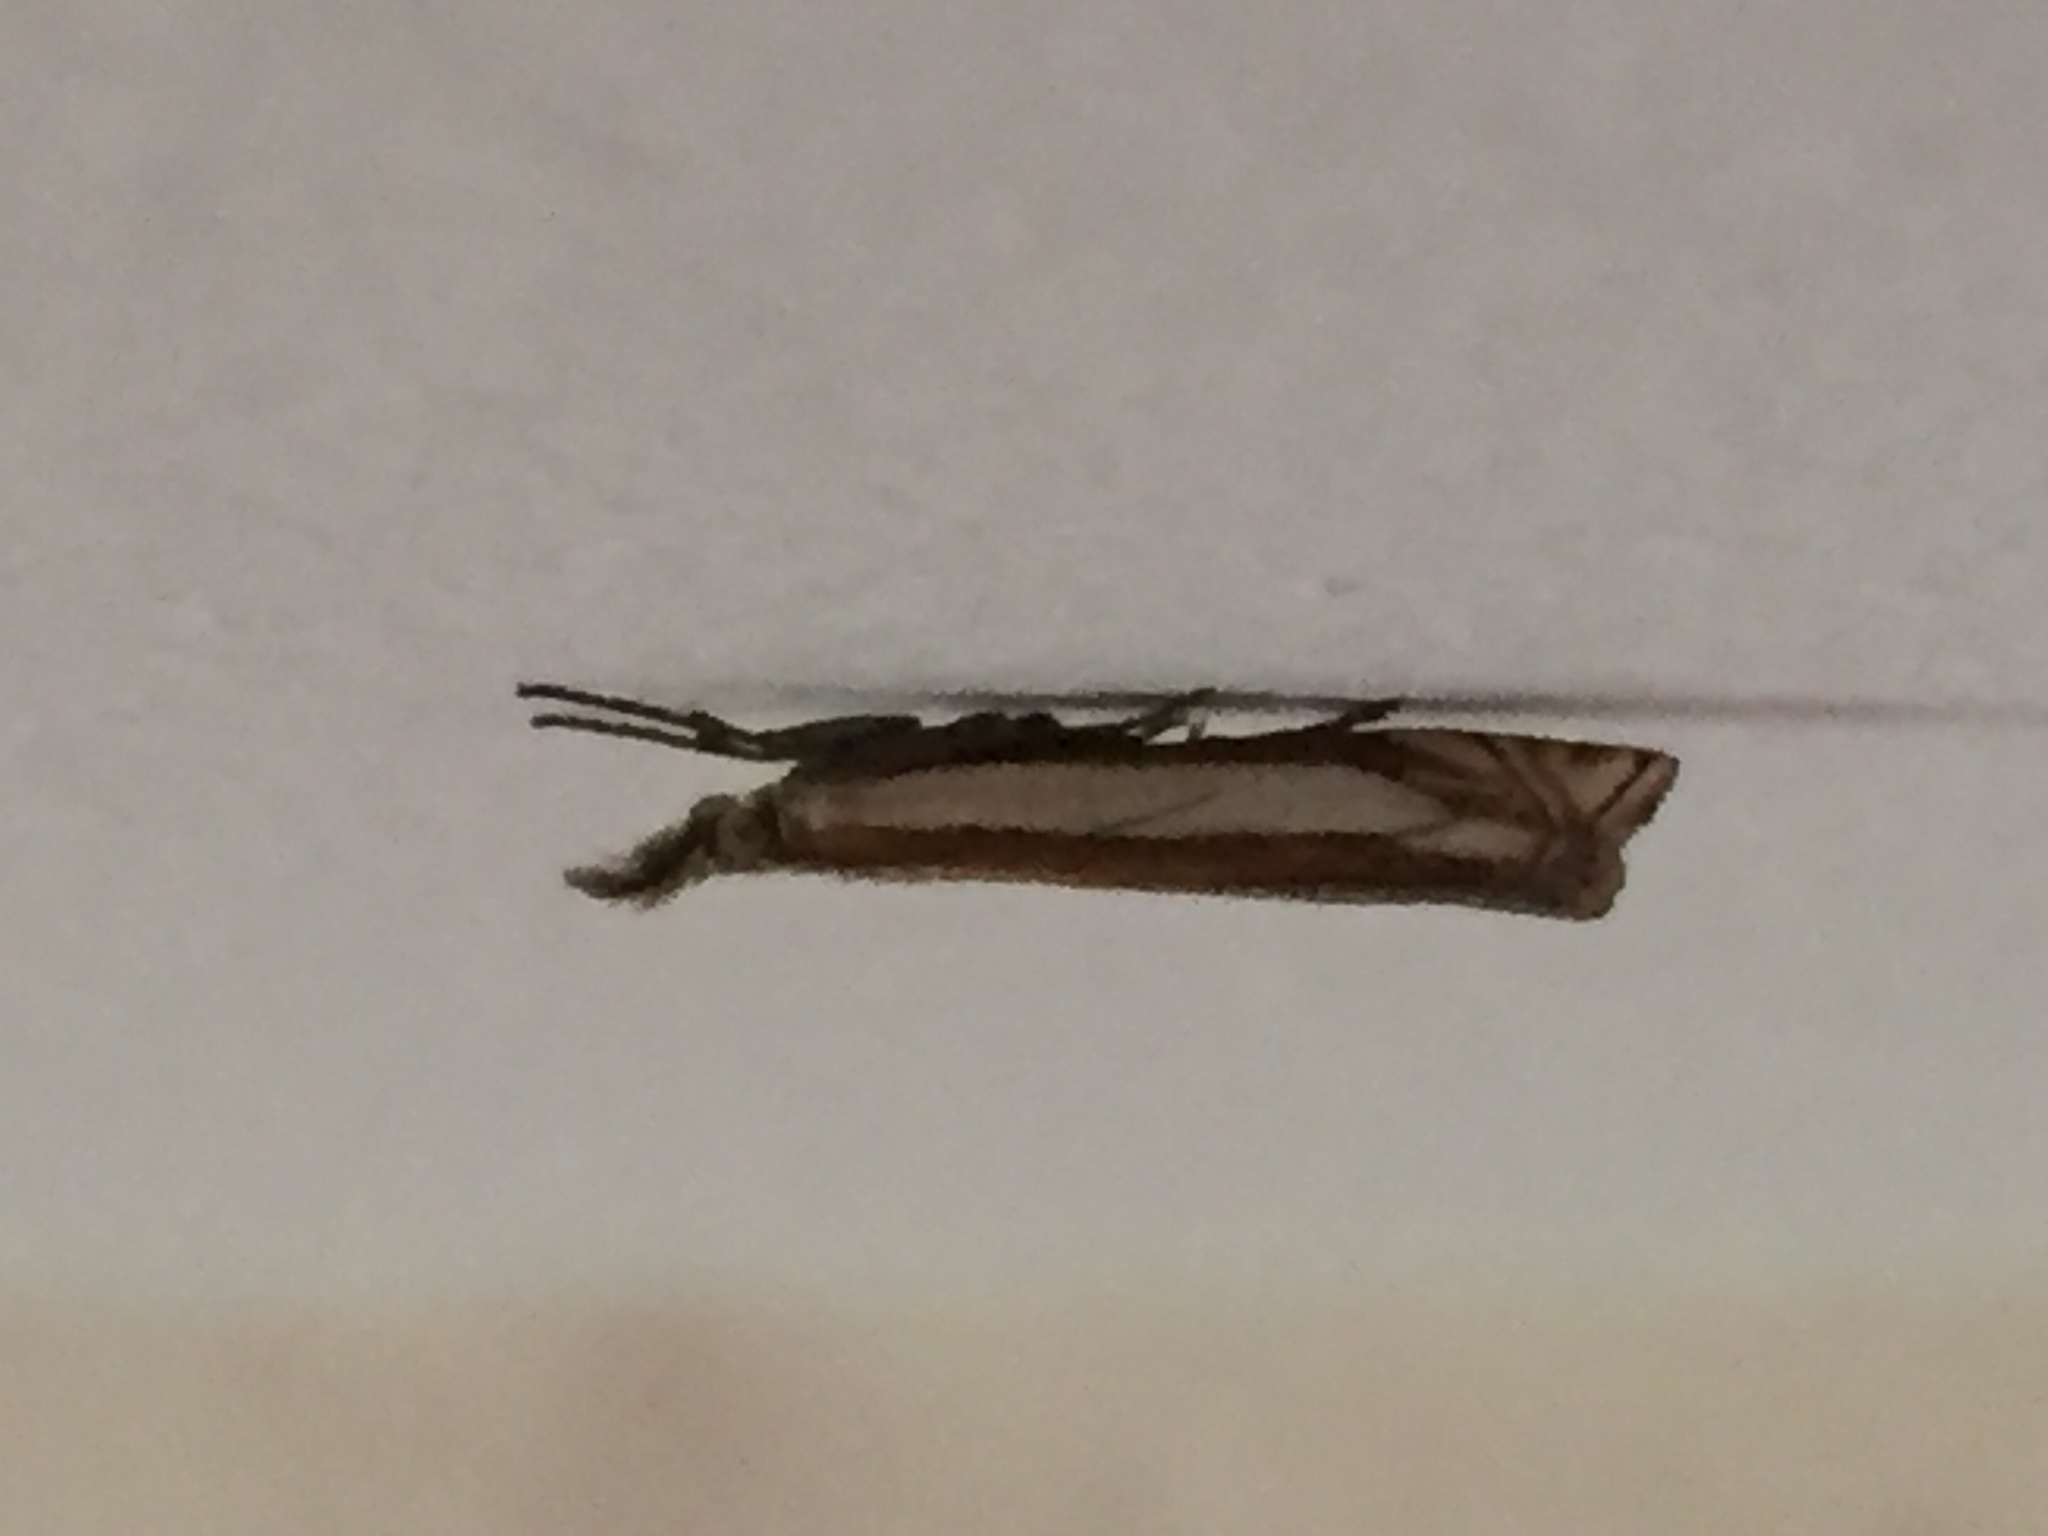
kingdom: Animalia
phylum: Arthropoda
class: Insecta
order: Lepidoptera
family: Crambidae
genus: Crambus
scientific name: Crambus pascuella
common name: Inlaid grass-veneer
